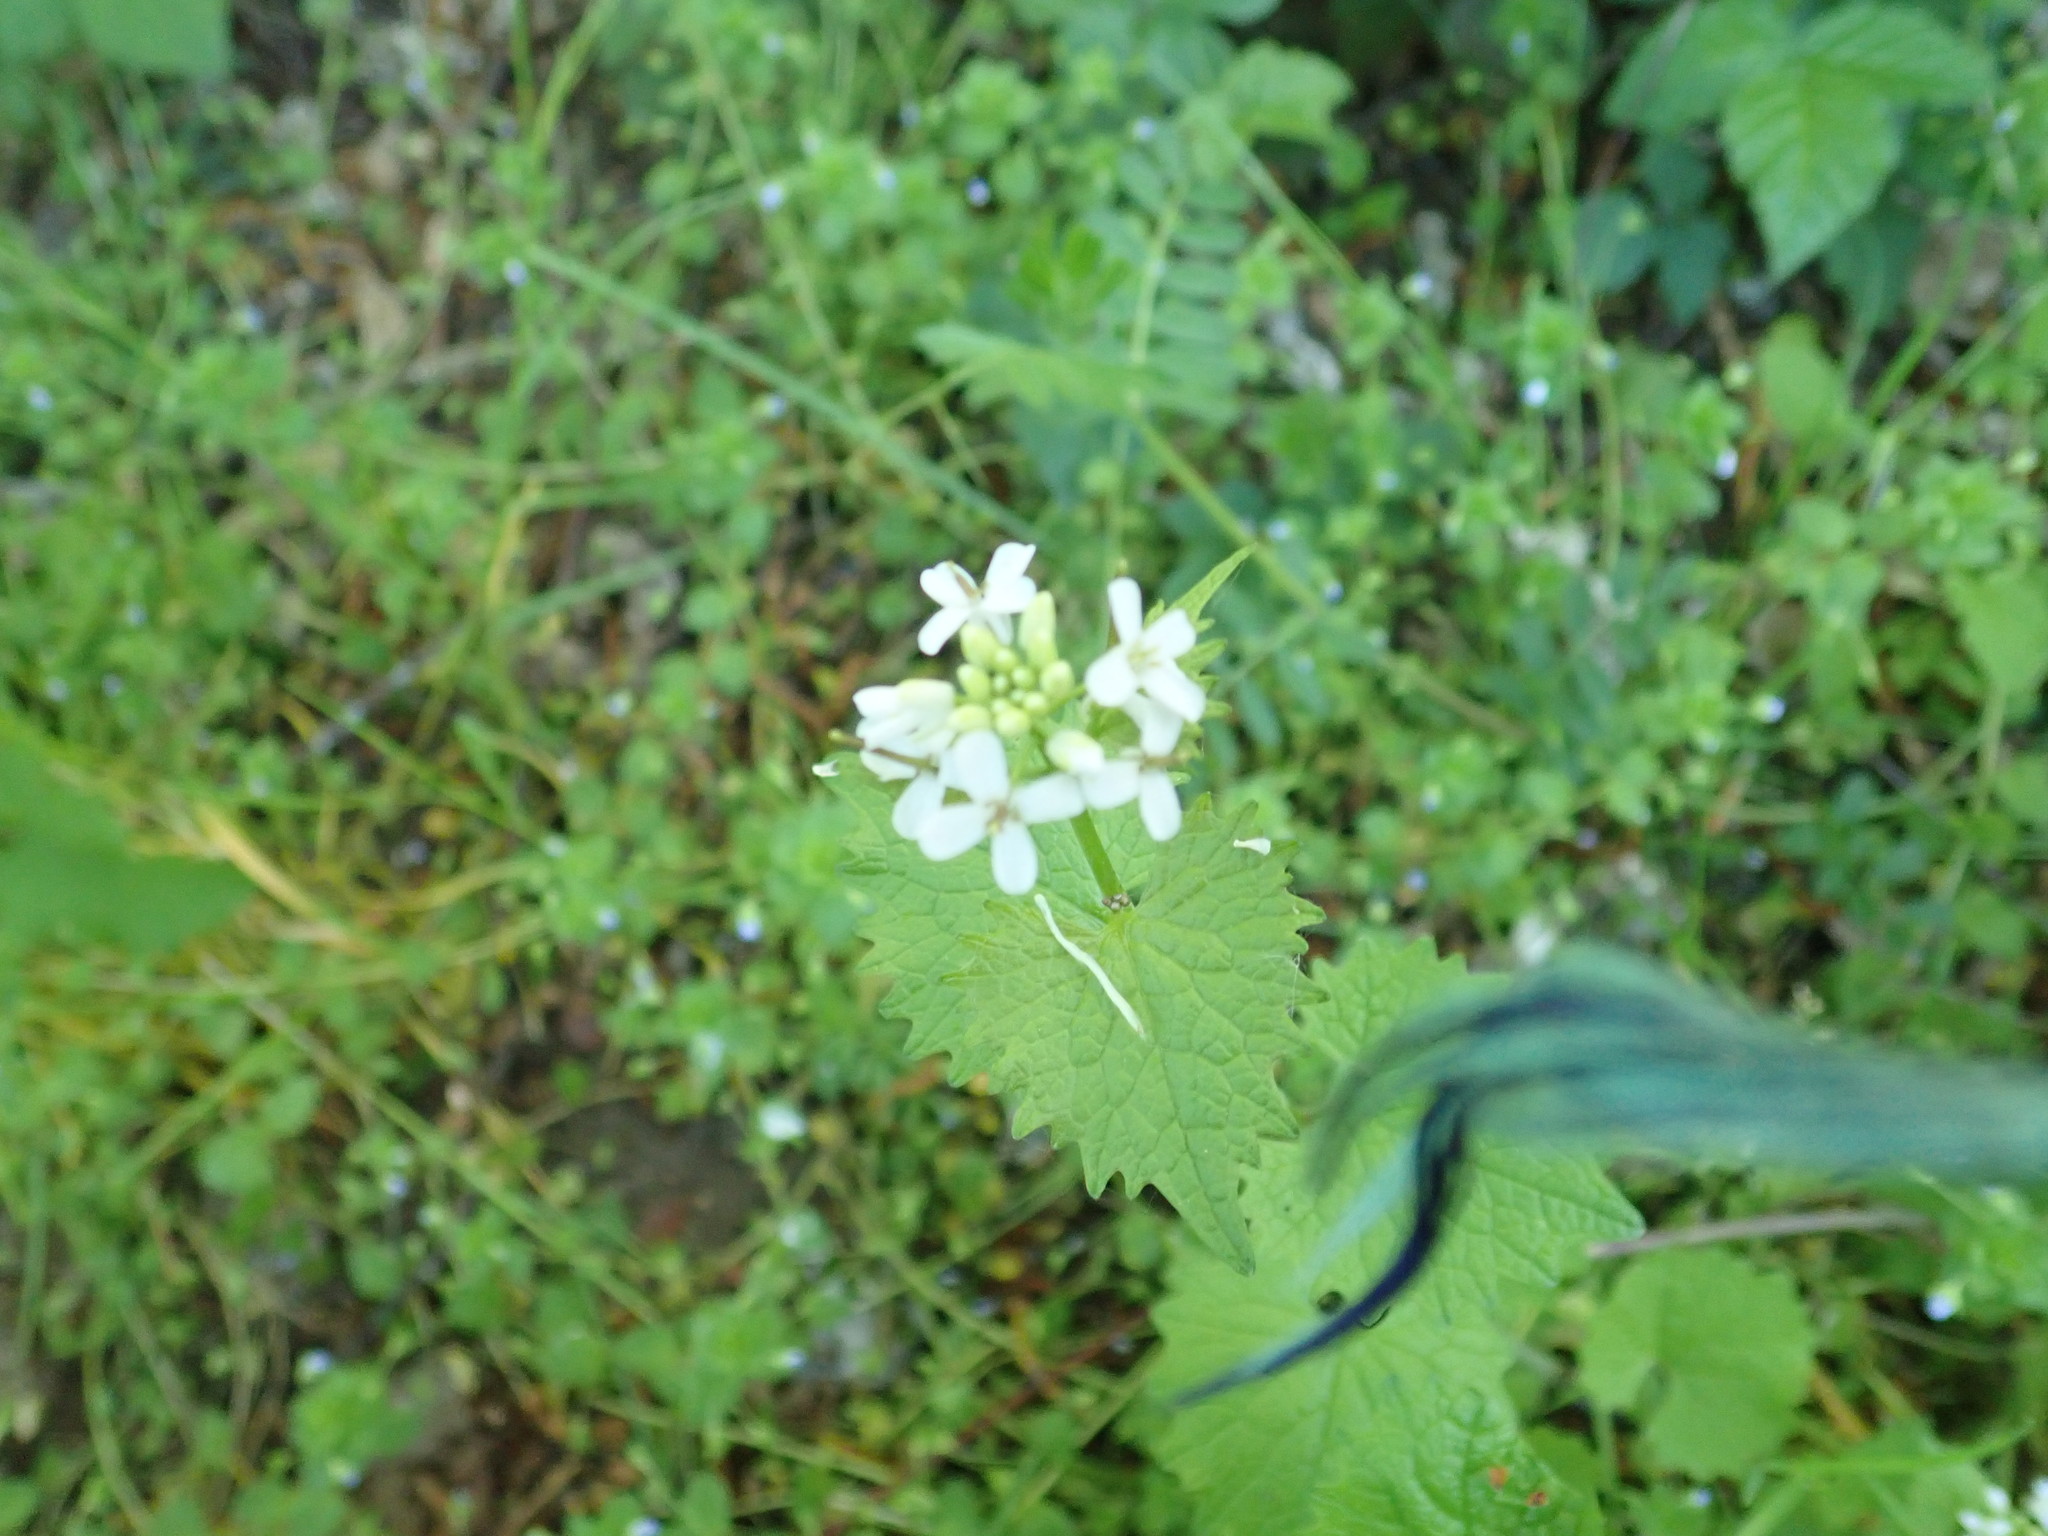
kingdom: Plantae
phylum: Tracheophyta
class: Magnoliopsida
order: Brassicales
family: Brassicaceae
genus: Alliaria
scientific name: Alliaria petiolata
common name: Garlic mustard
